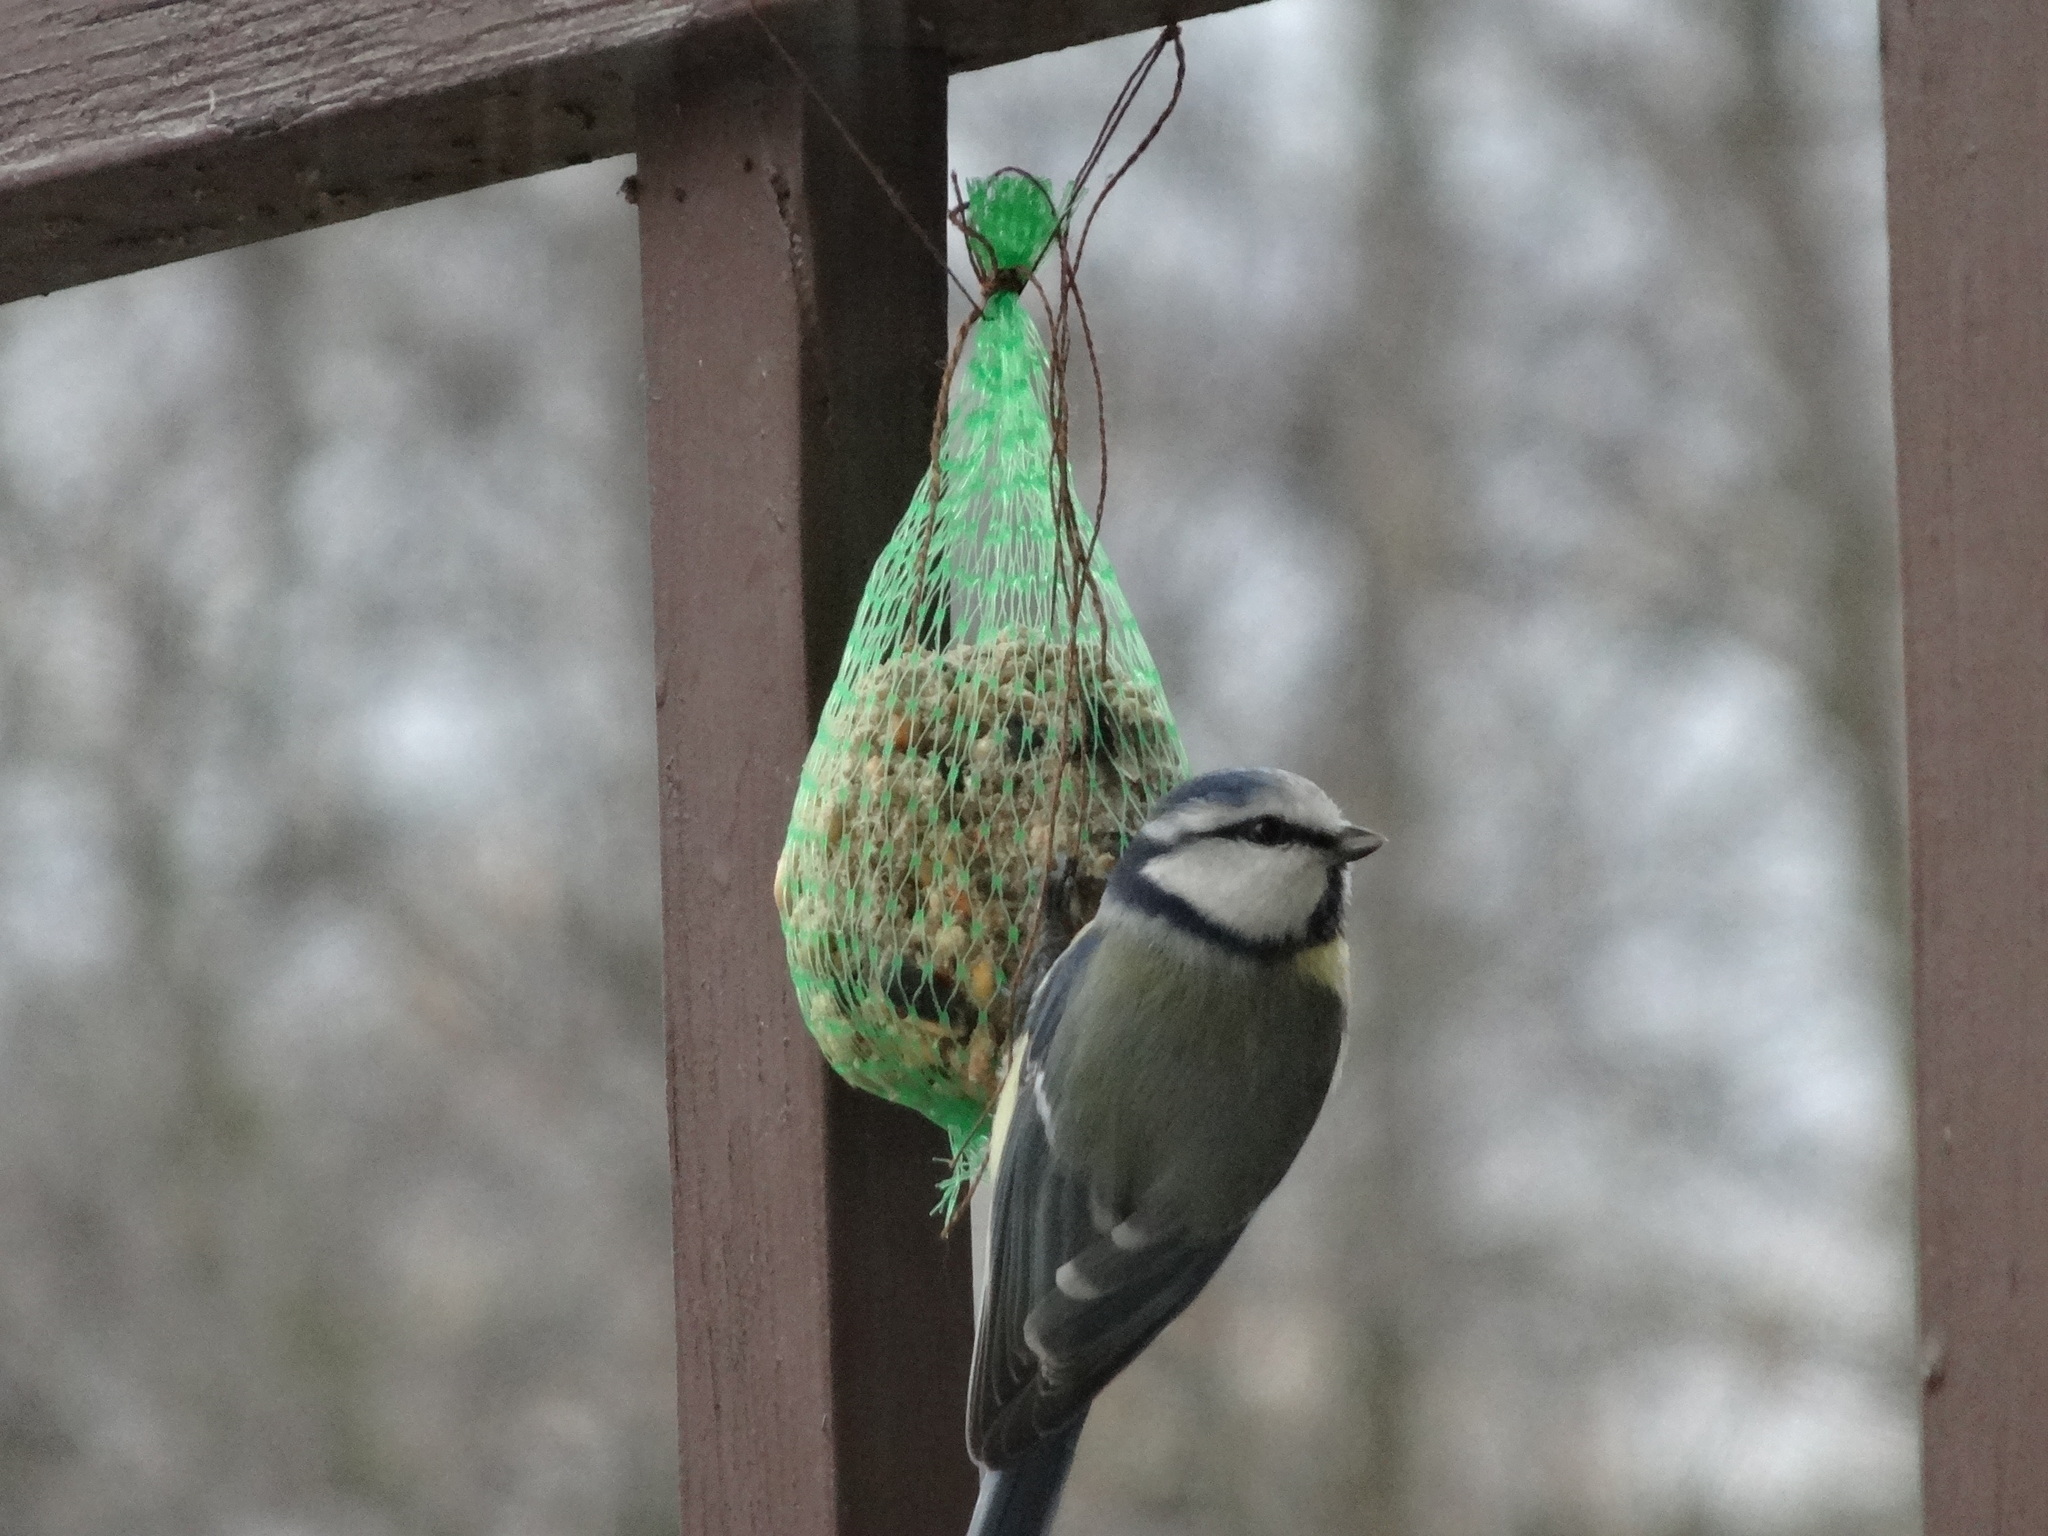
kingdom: Animalia
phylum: Chordata
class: Aves
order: Passeriformes
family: Paridae
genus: Cyanistes
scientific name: Cyanistes caeruleus
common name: Eurasian blue tit
